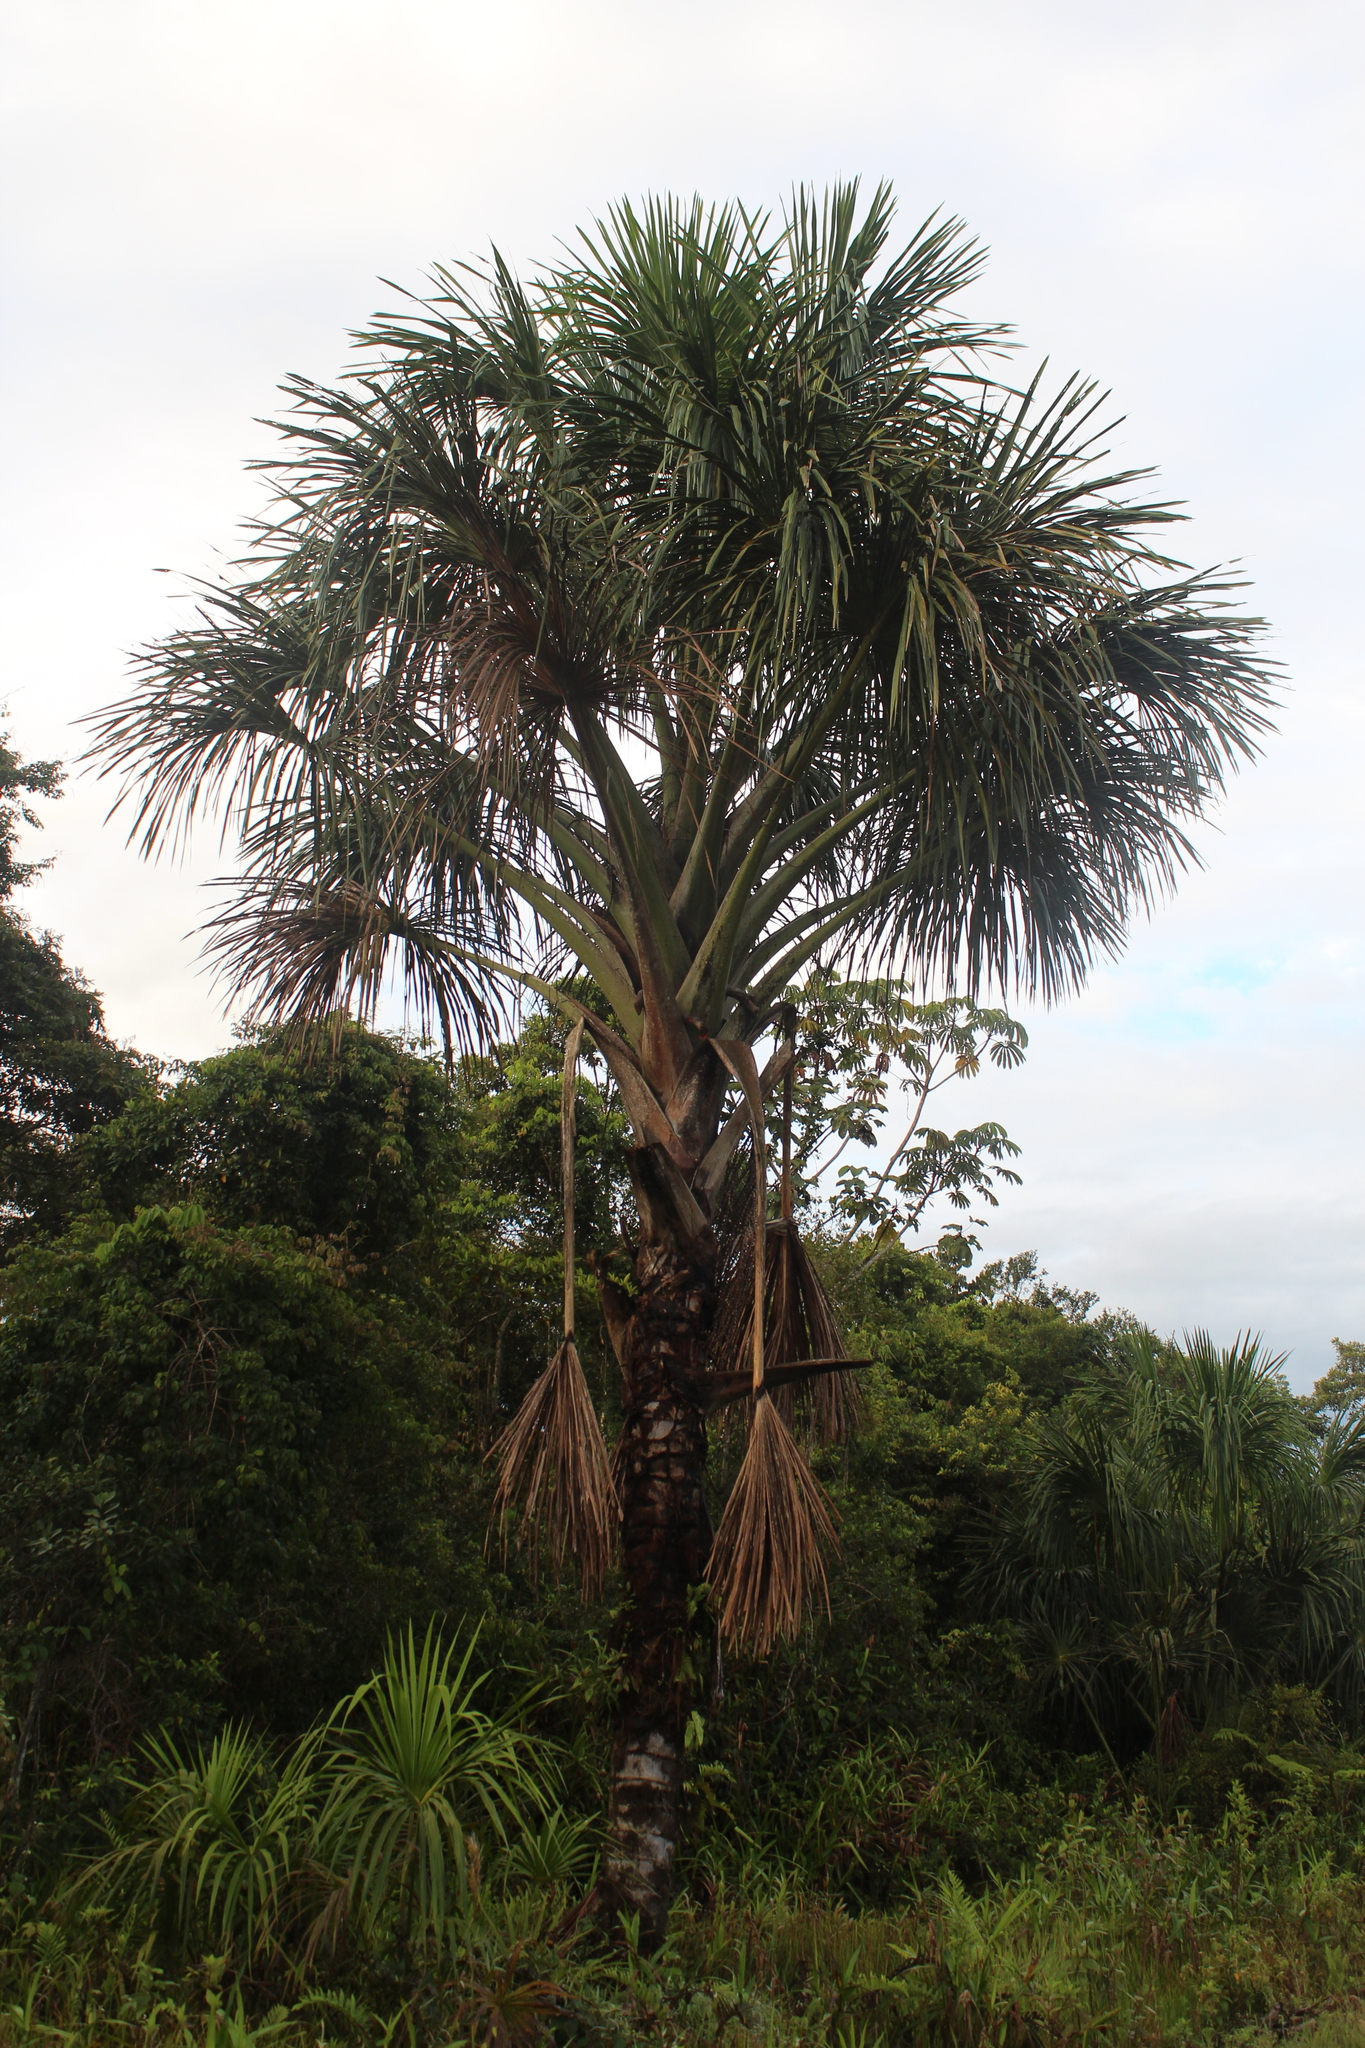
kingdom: Plantae
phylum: Tracheophyta
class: Liliopsida
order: Arecales
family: Arecaceae
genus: Mauritia
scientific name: Mauritia flexuosa
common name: Tree-of-life
